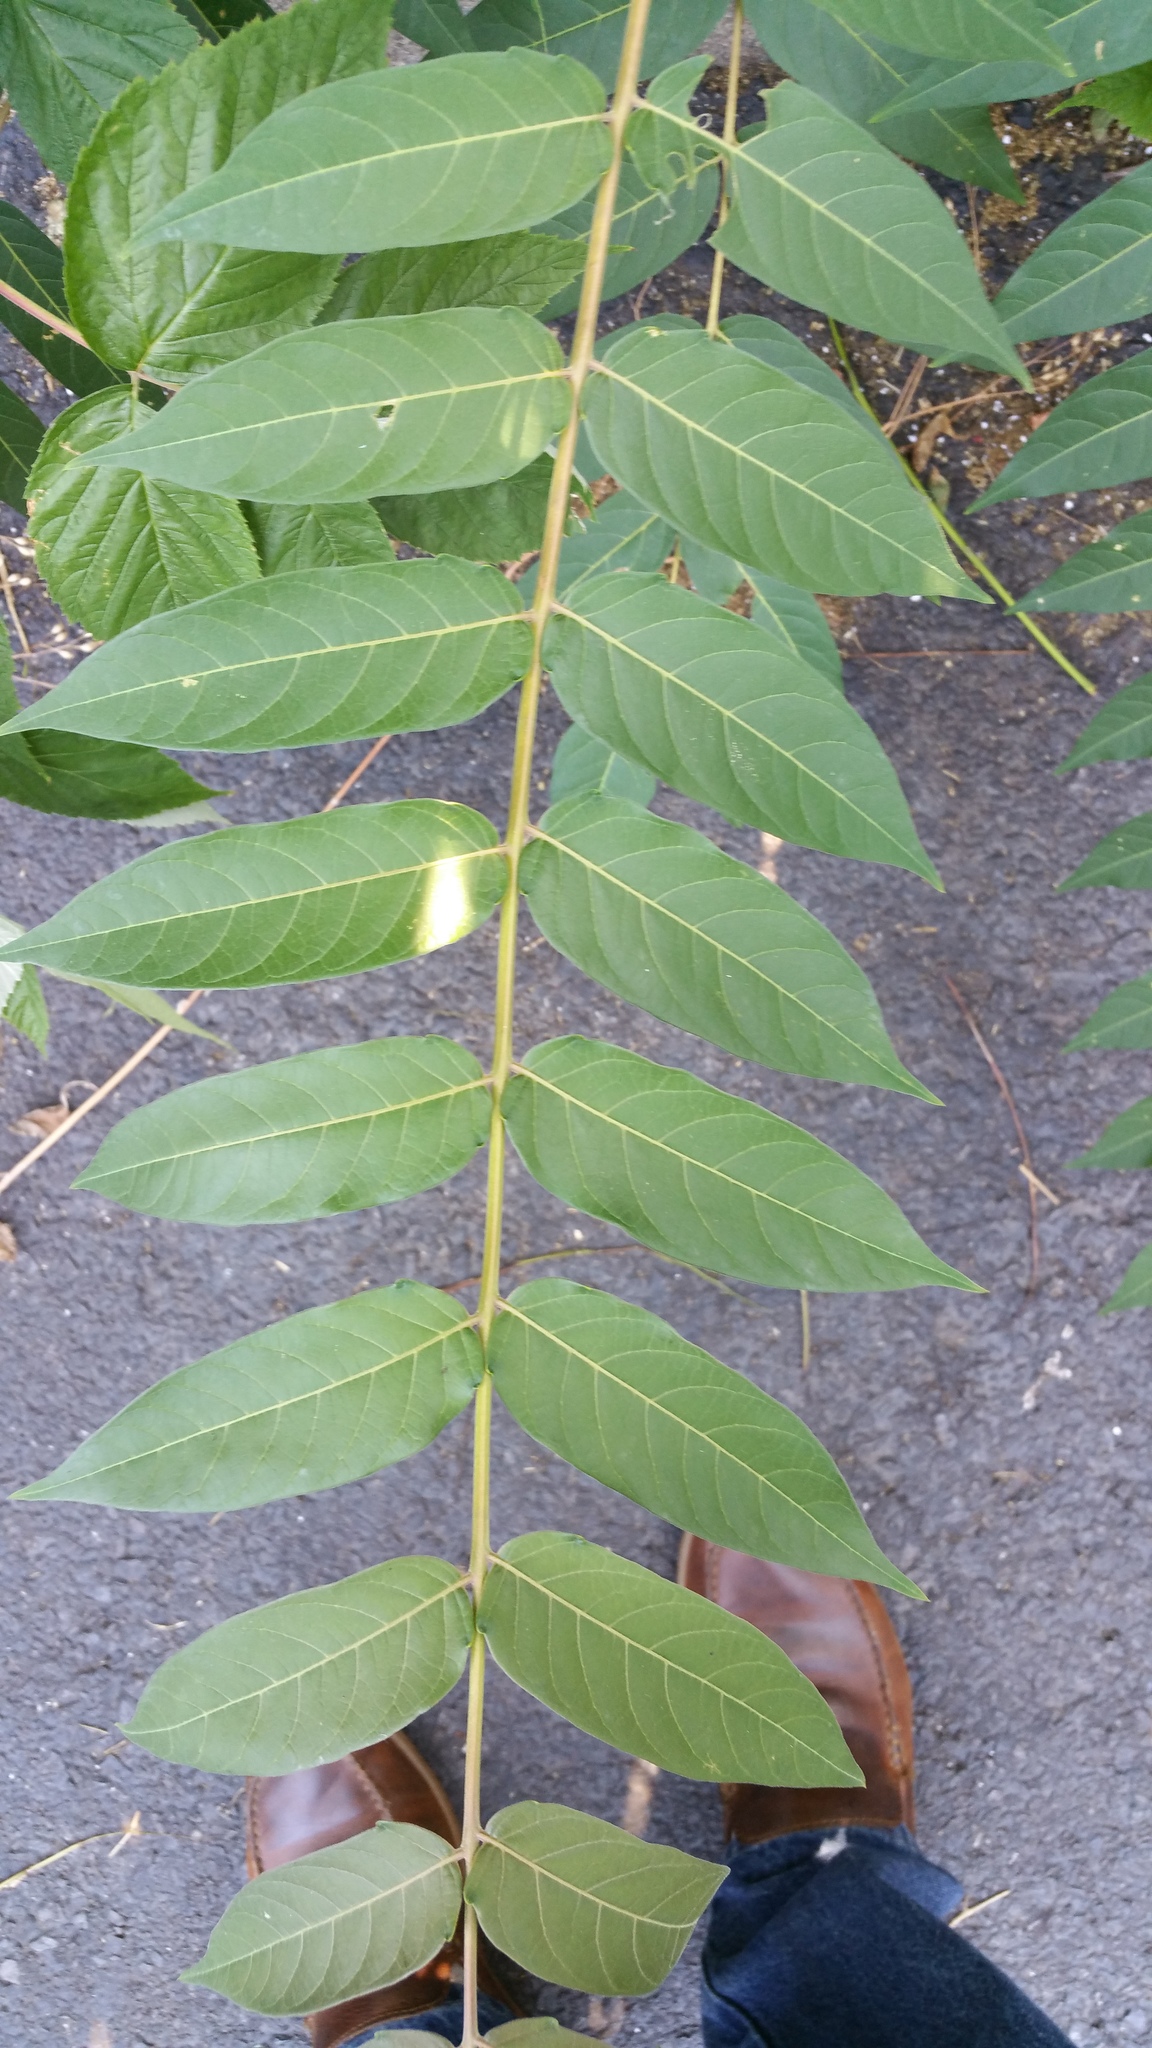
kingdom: Plantae
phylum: Tracheophyta
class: Magnoliopsida
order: Sapindales
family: Simaroubaceae
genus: Ailanthus
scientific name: Ailanthus altissima
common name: Tree-of-heaven
